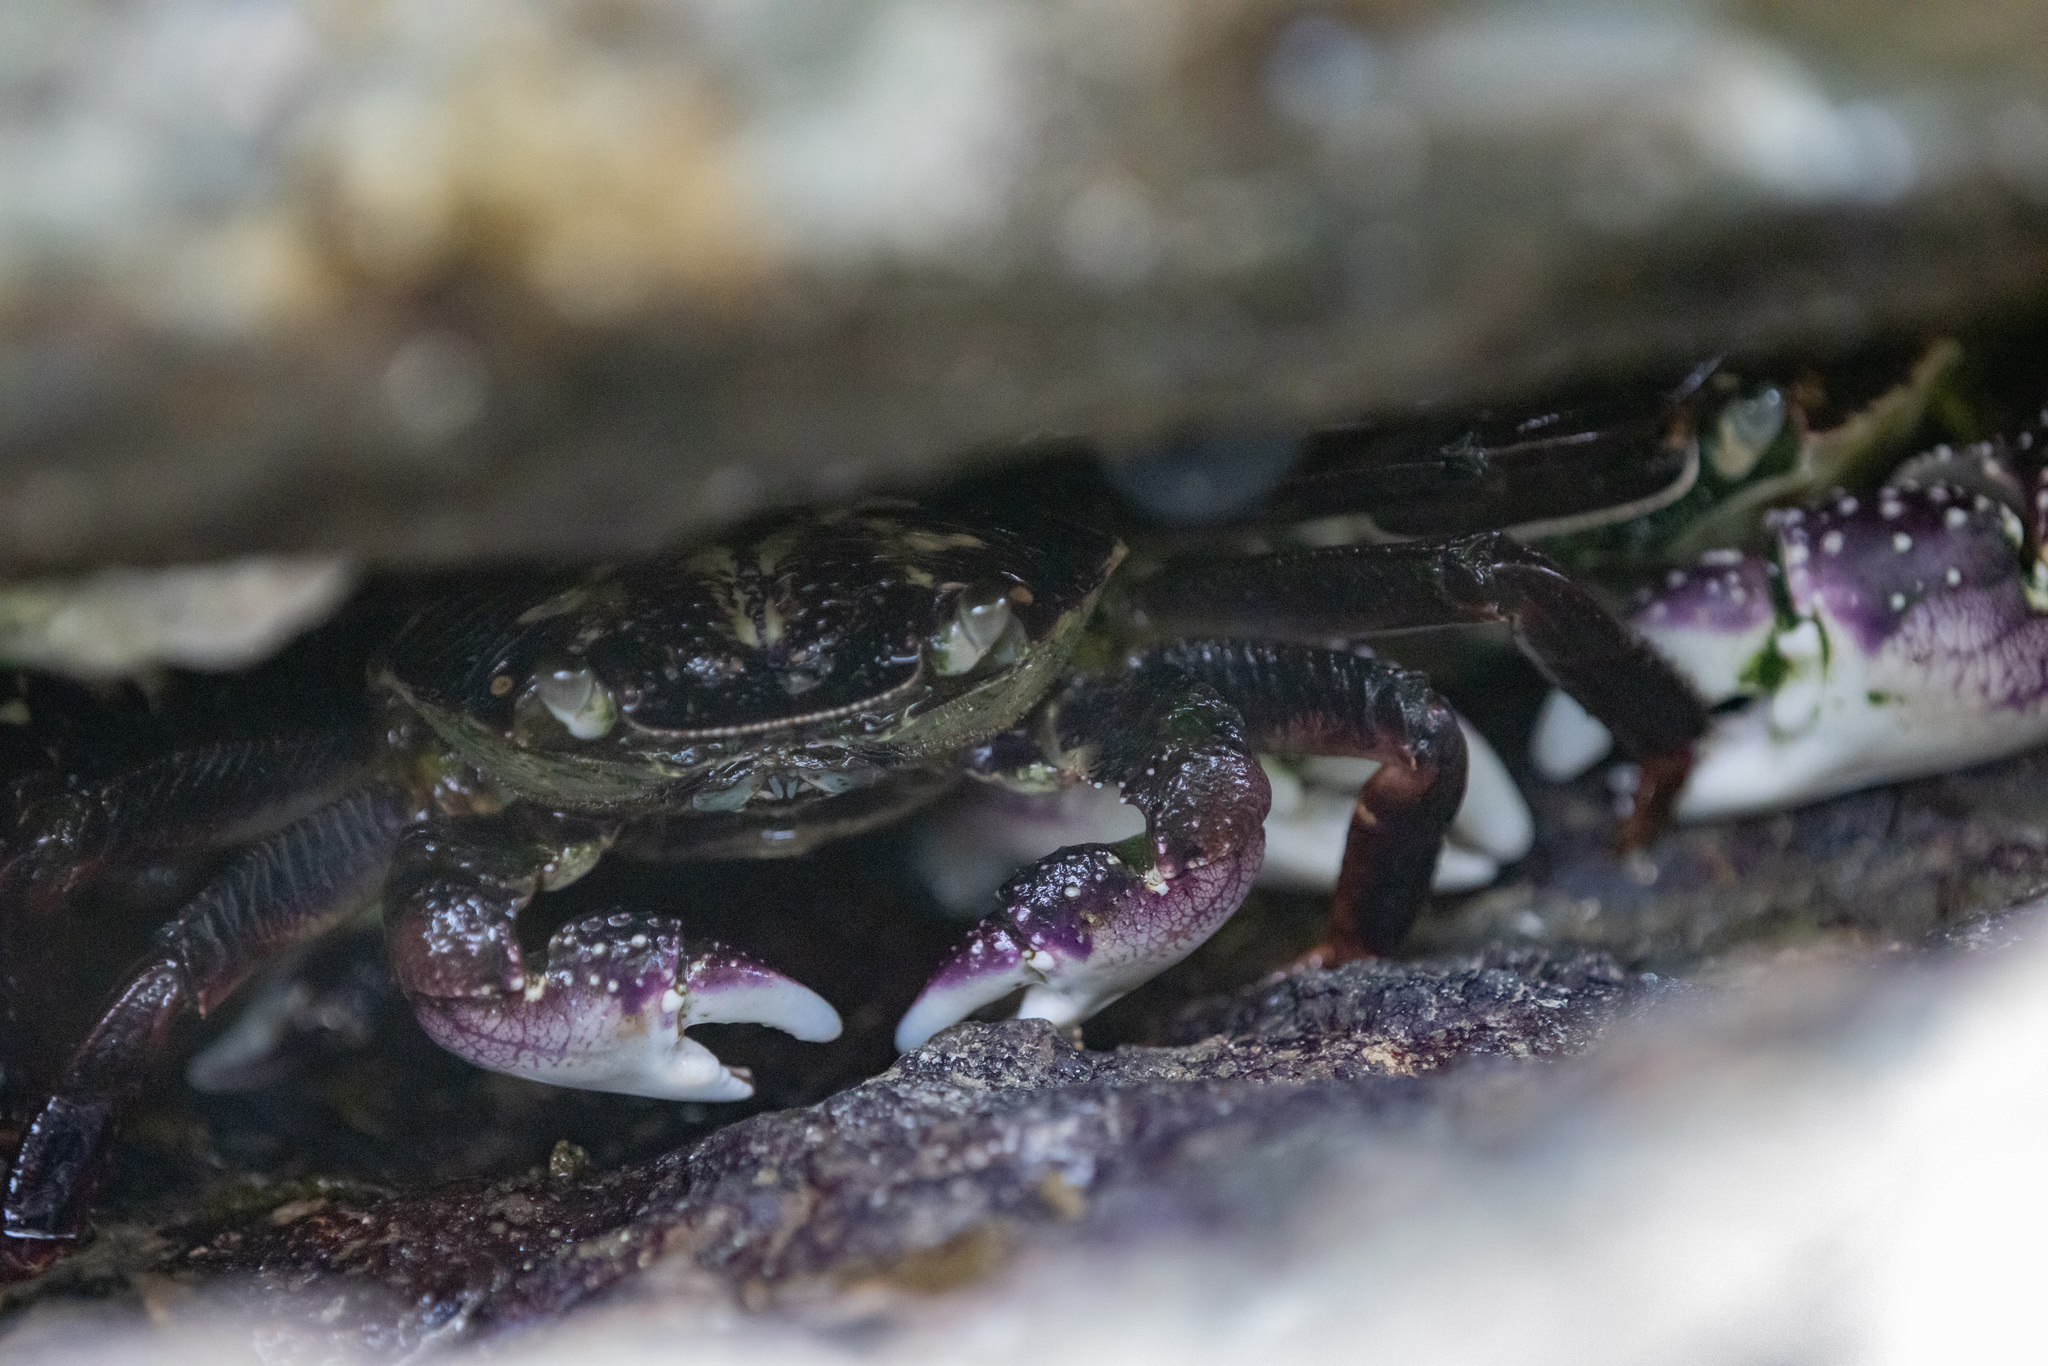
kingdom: Animalia
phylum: Arthropoda
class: Malacostraca
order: Decapoda
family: Grapsidae
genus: Leptograpsus
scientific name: Leptograpsus variegatus
